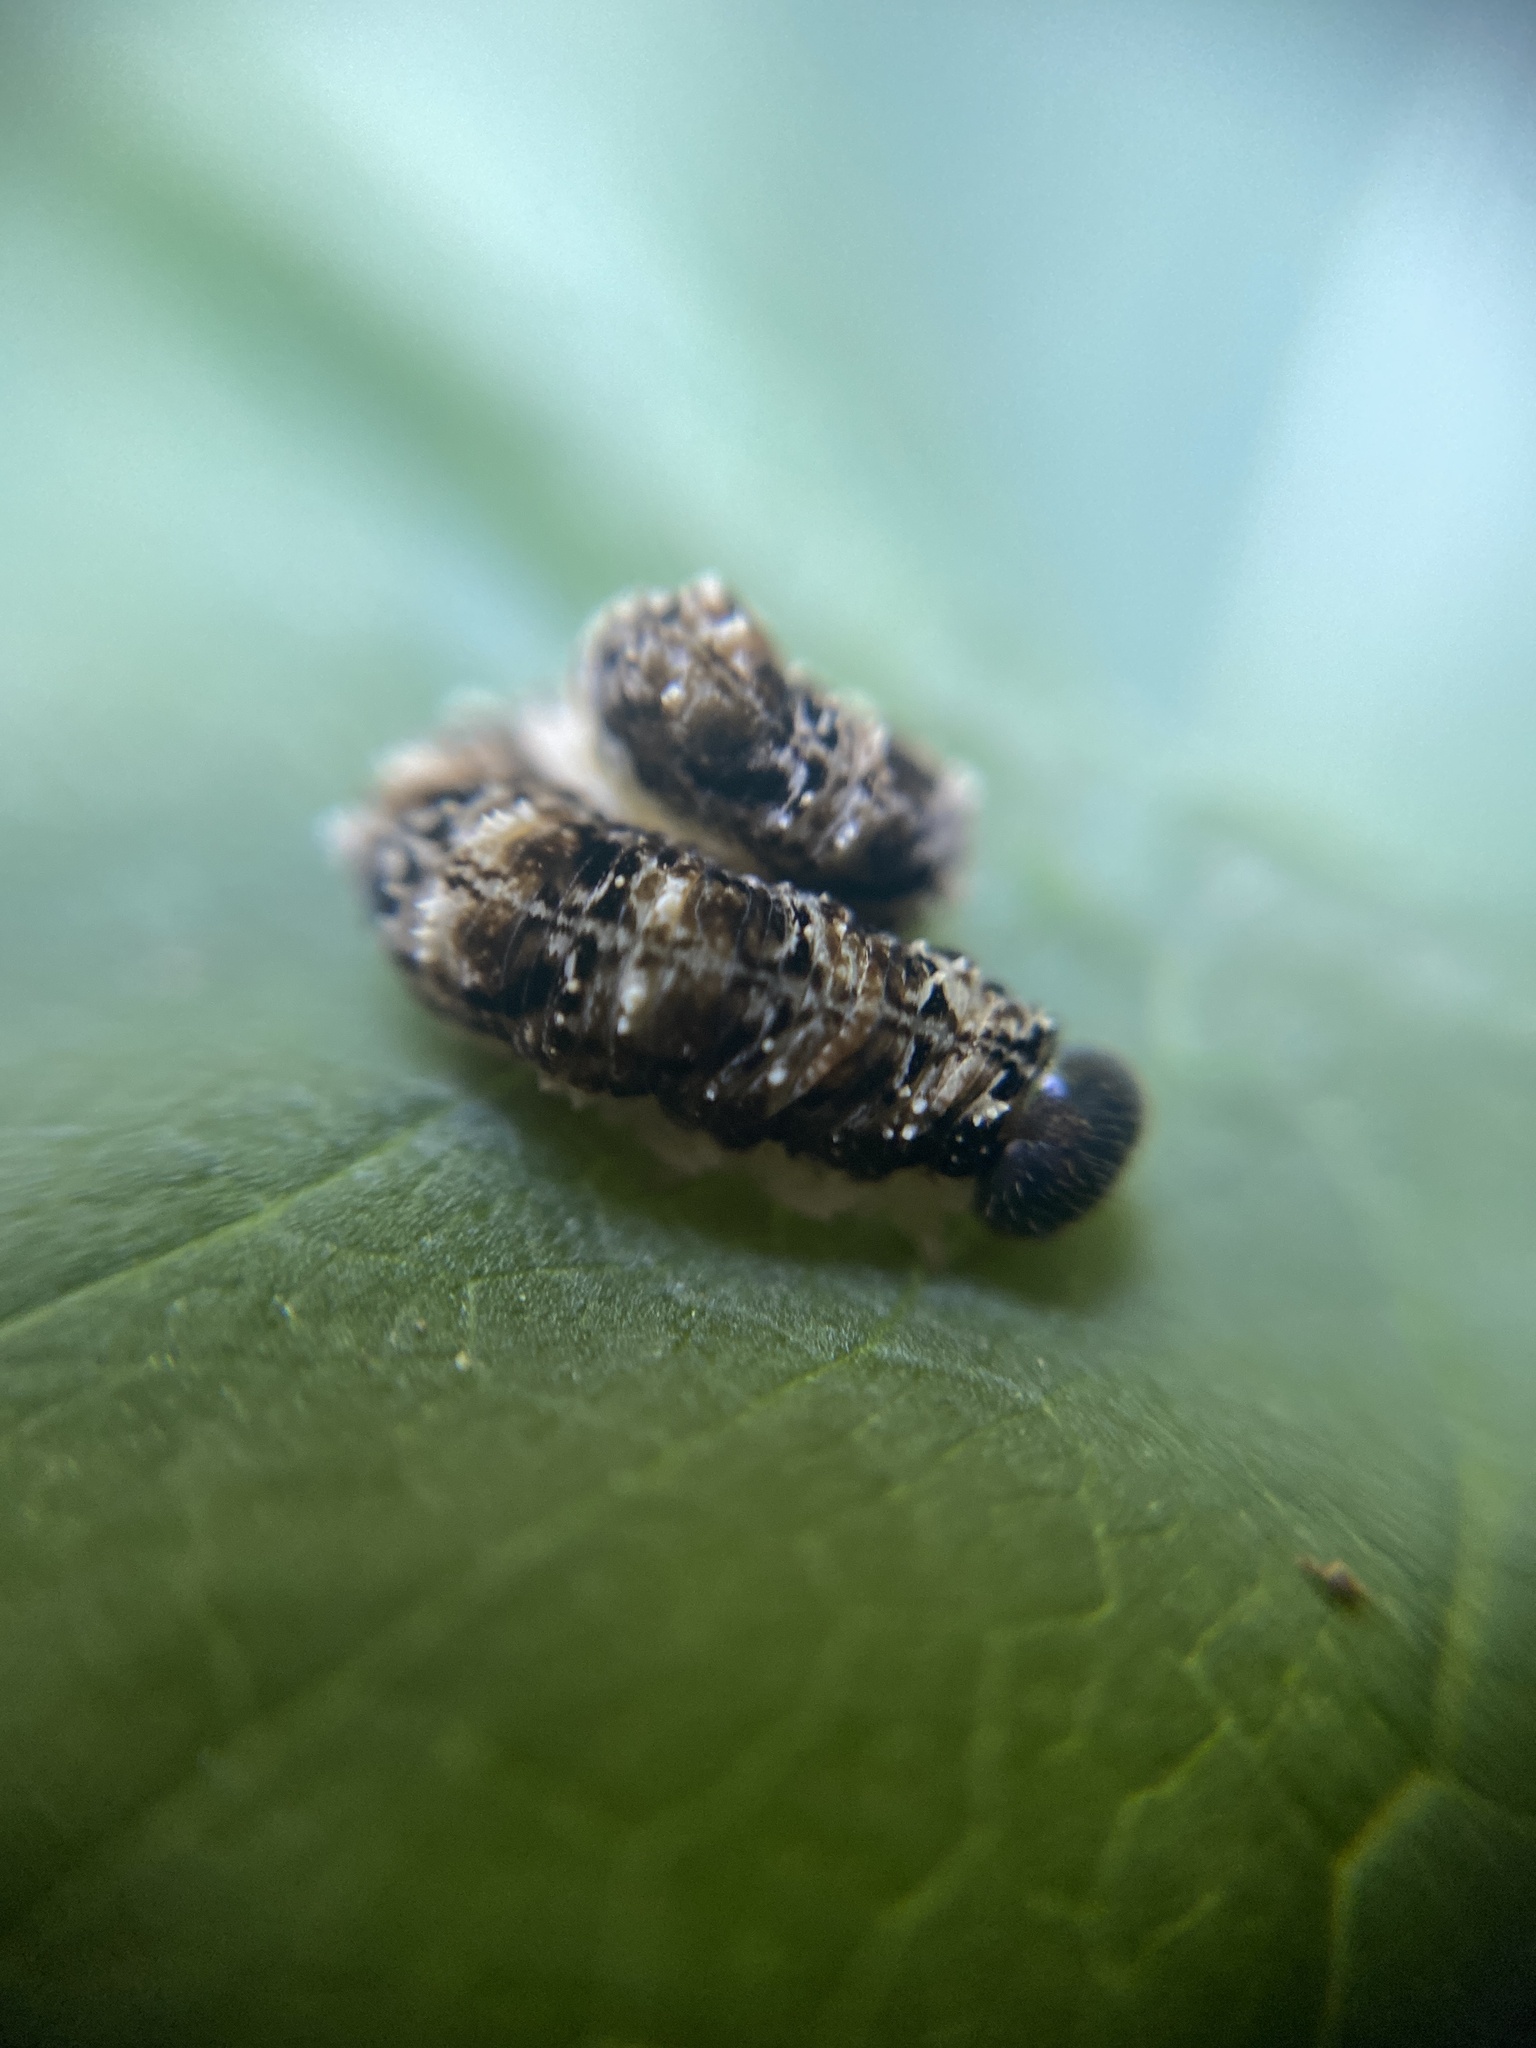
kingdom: Animalia
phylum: Arthropoda
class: Insecta
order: Hymenoptera
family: Tenthredinidae
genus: Tenthredo
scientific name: Tenthredo bipunctula
